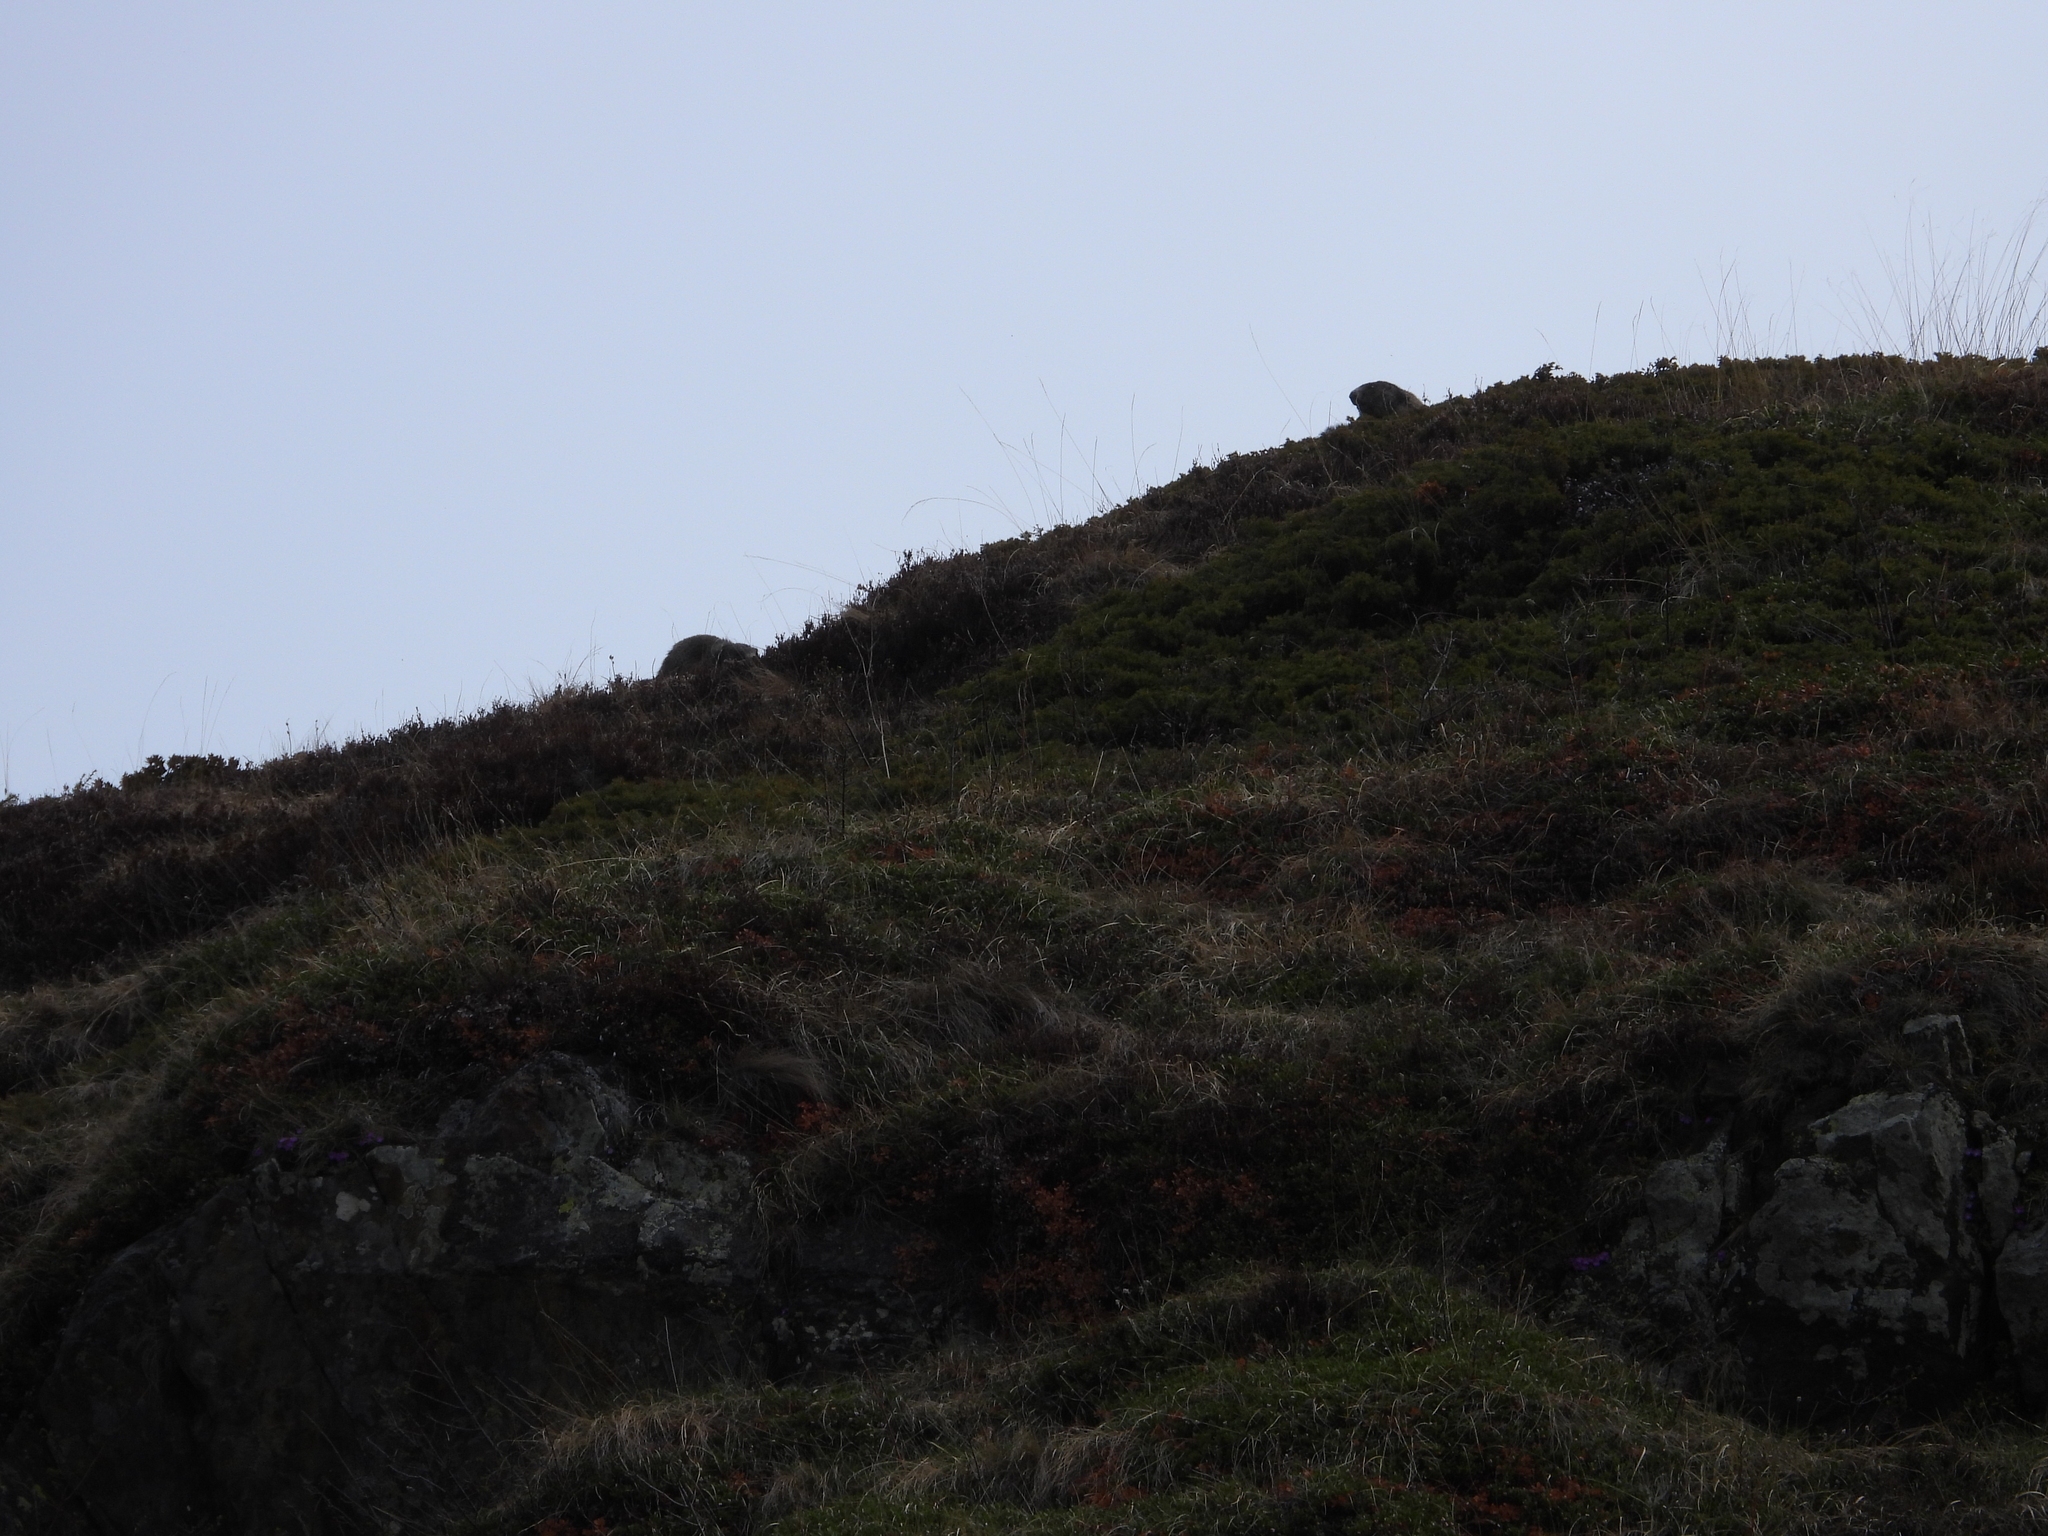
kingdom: Animalia
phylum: Chordata
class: Mammalia
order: Rodentia
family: Sciuridae
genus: Marmota
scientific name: Marmota marmota
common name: Alpine marmot
